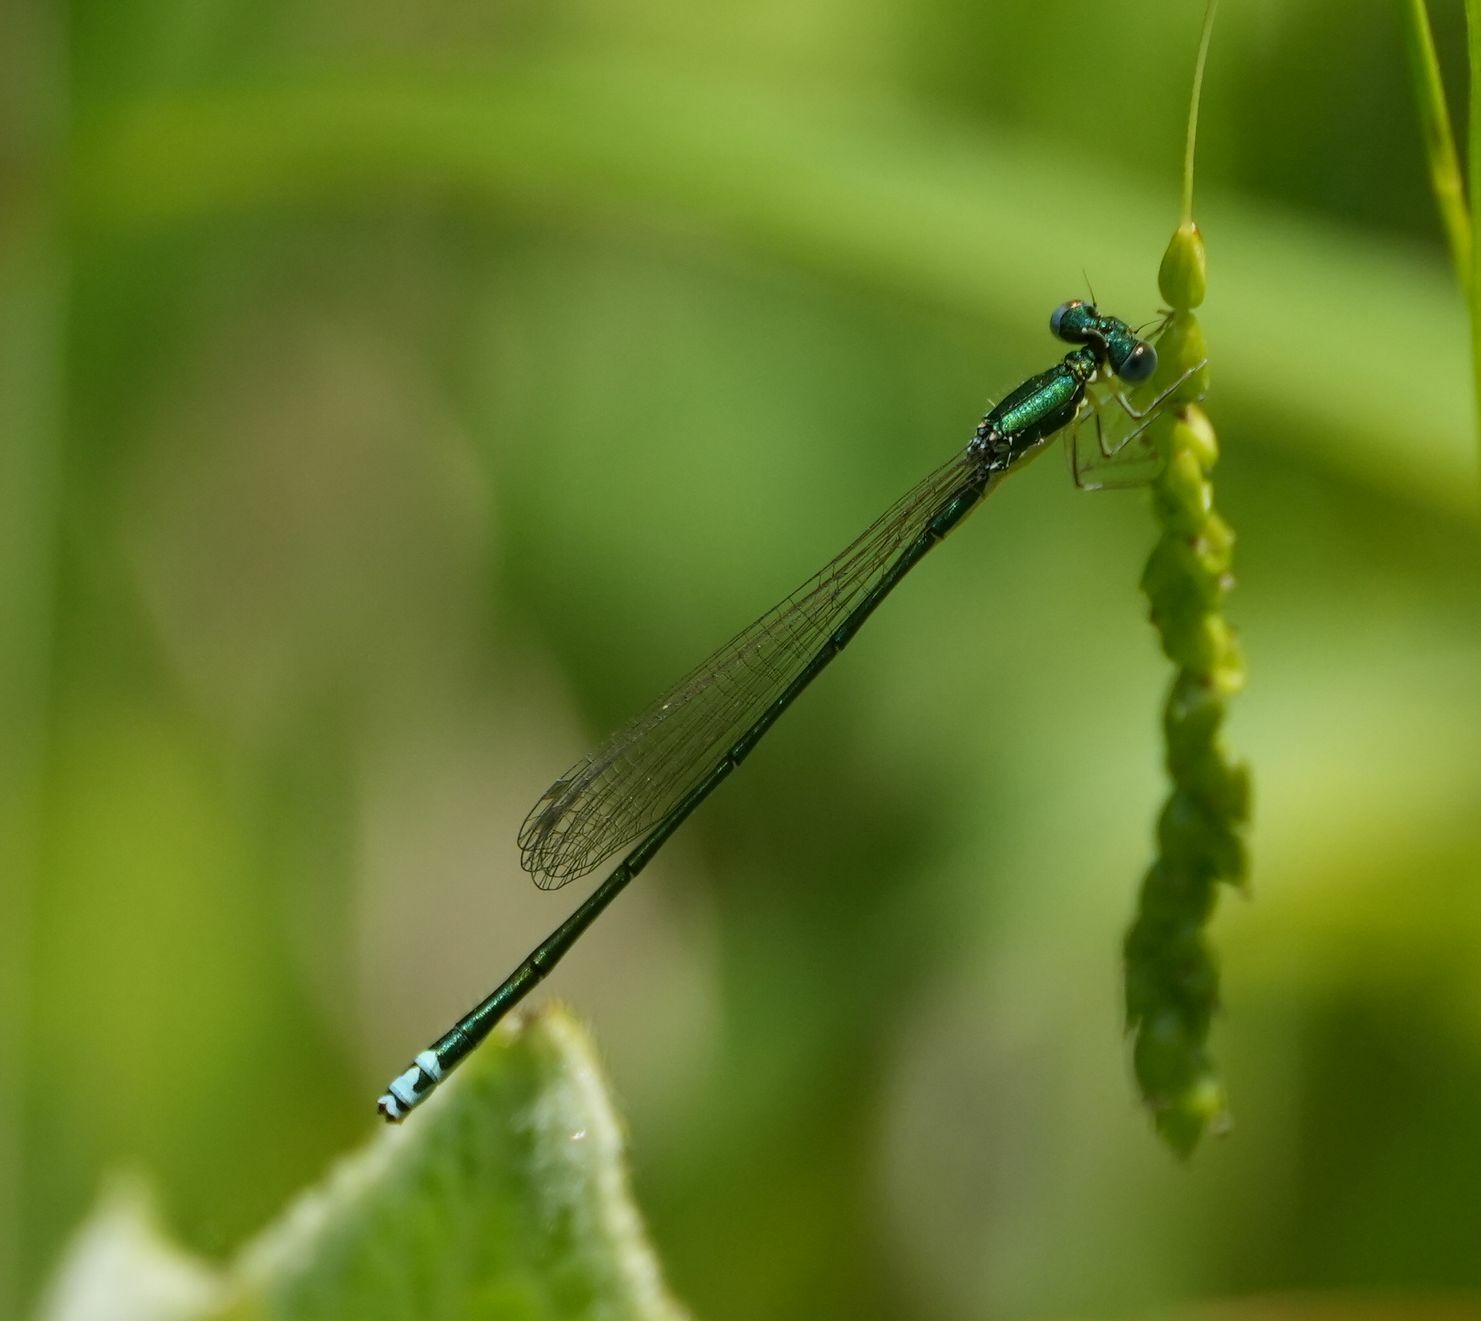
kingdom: Animalia
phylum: Arthropoda
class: Insecta
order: Odonata
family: Coenagrionidae
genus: Nehalennia
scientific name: Nehalennia irene
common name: Sedge sprite
